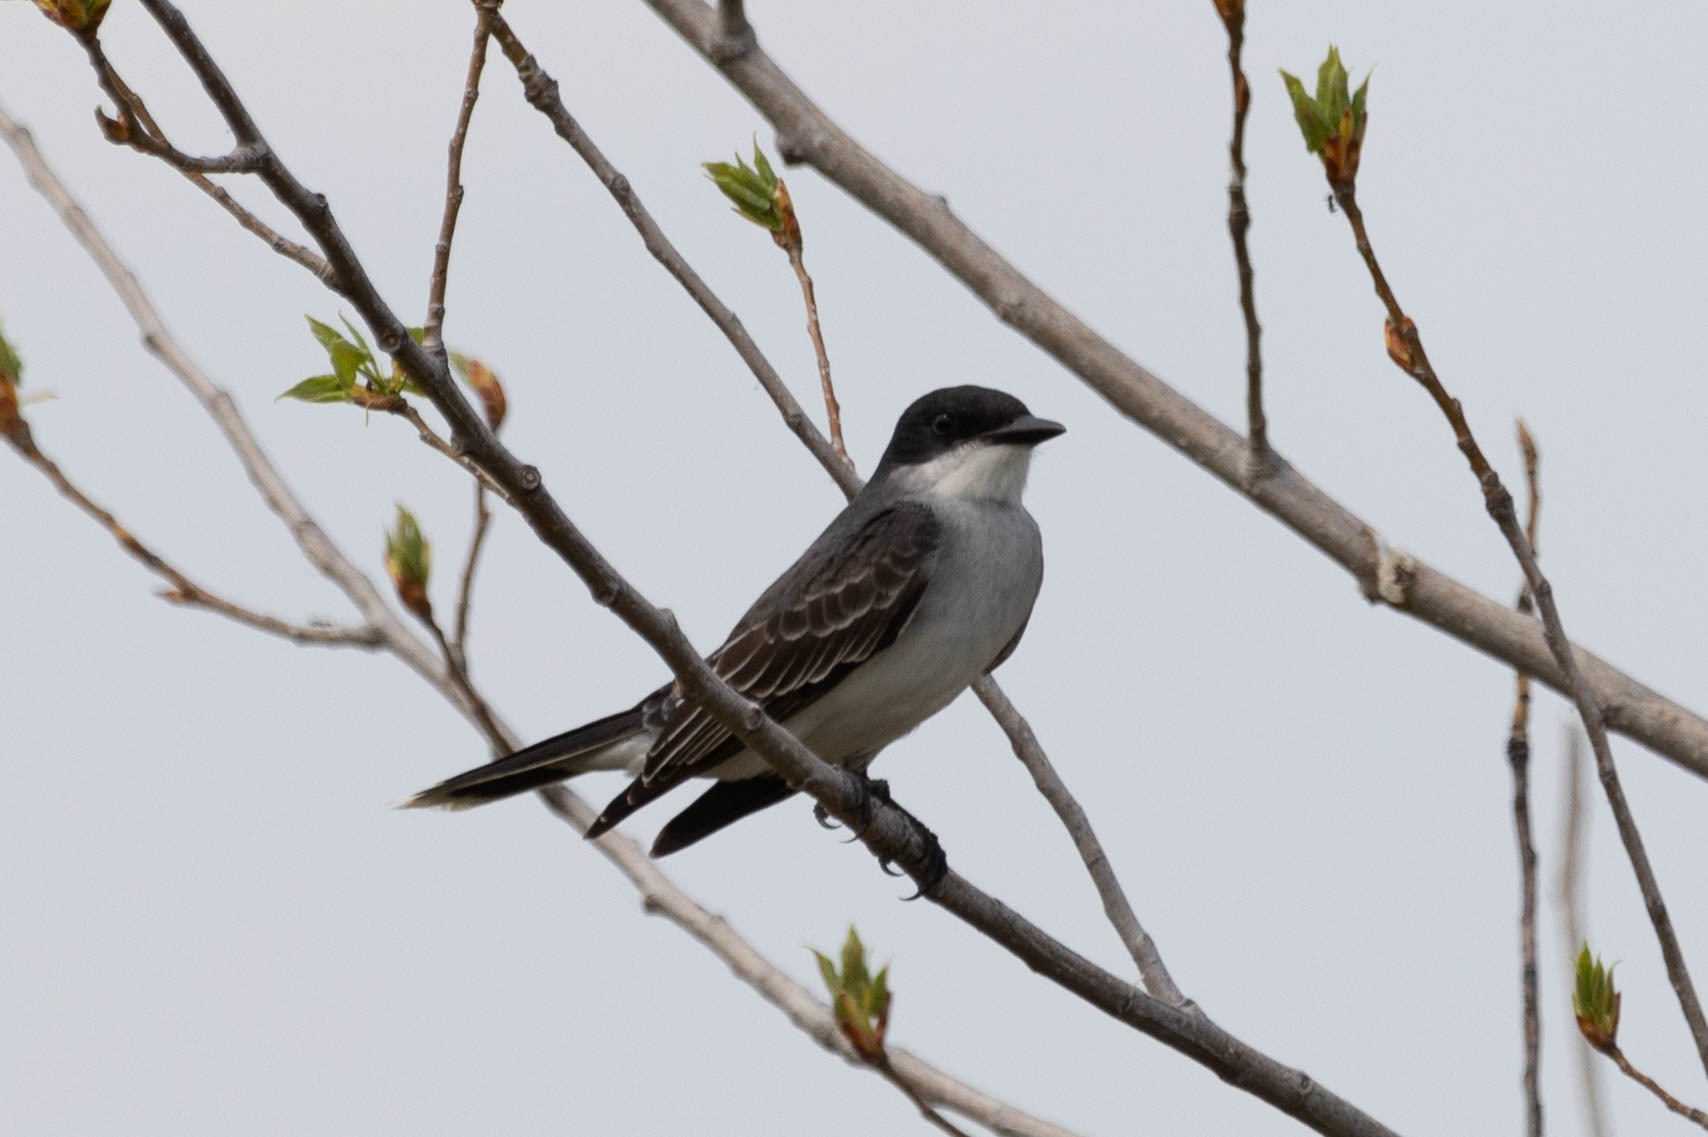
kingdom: Animalia
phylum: Chordata
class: Aves
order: Passeriformes
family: Tyrannidae
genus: Tyrannus
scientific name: Tyrannus tyrannus
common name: Eastern kingbird
